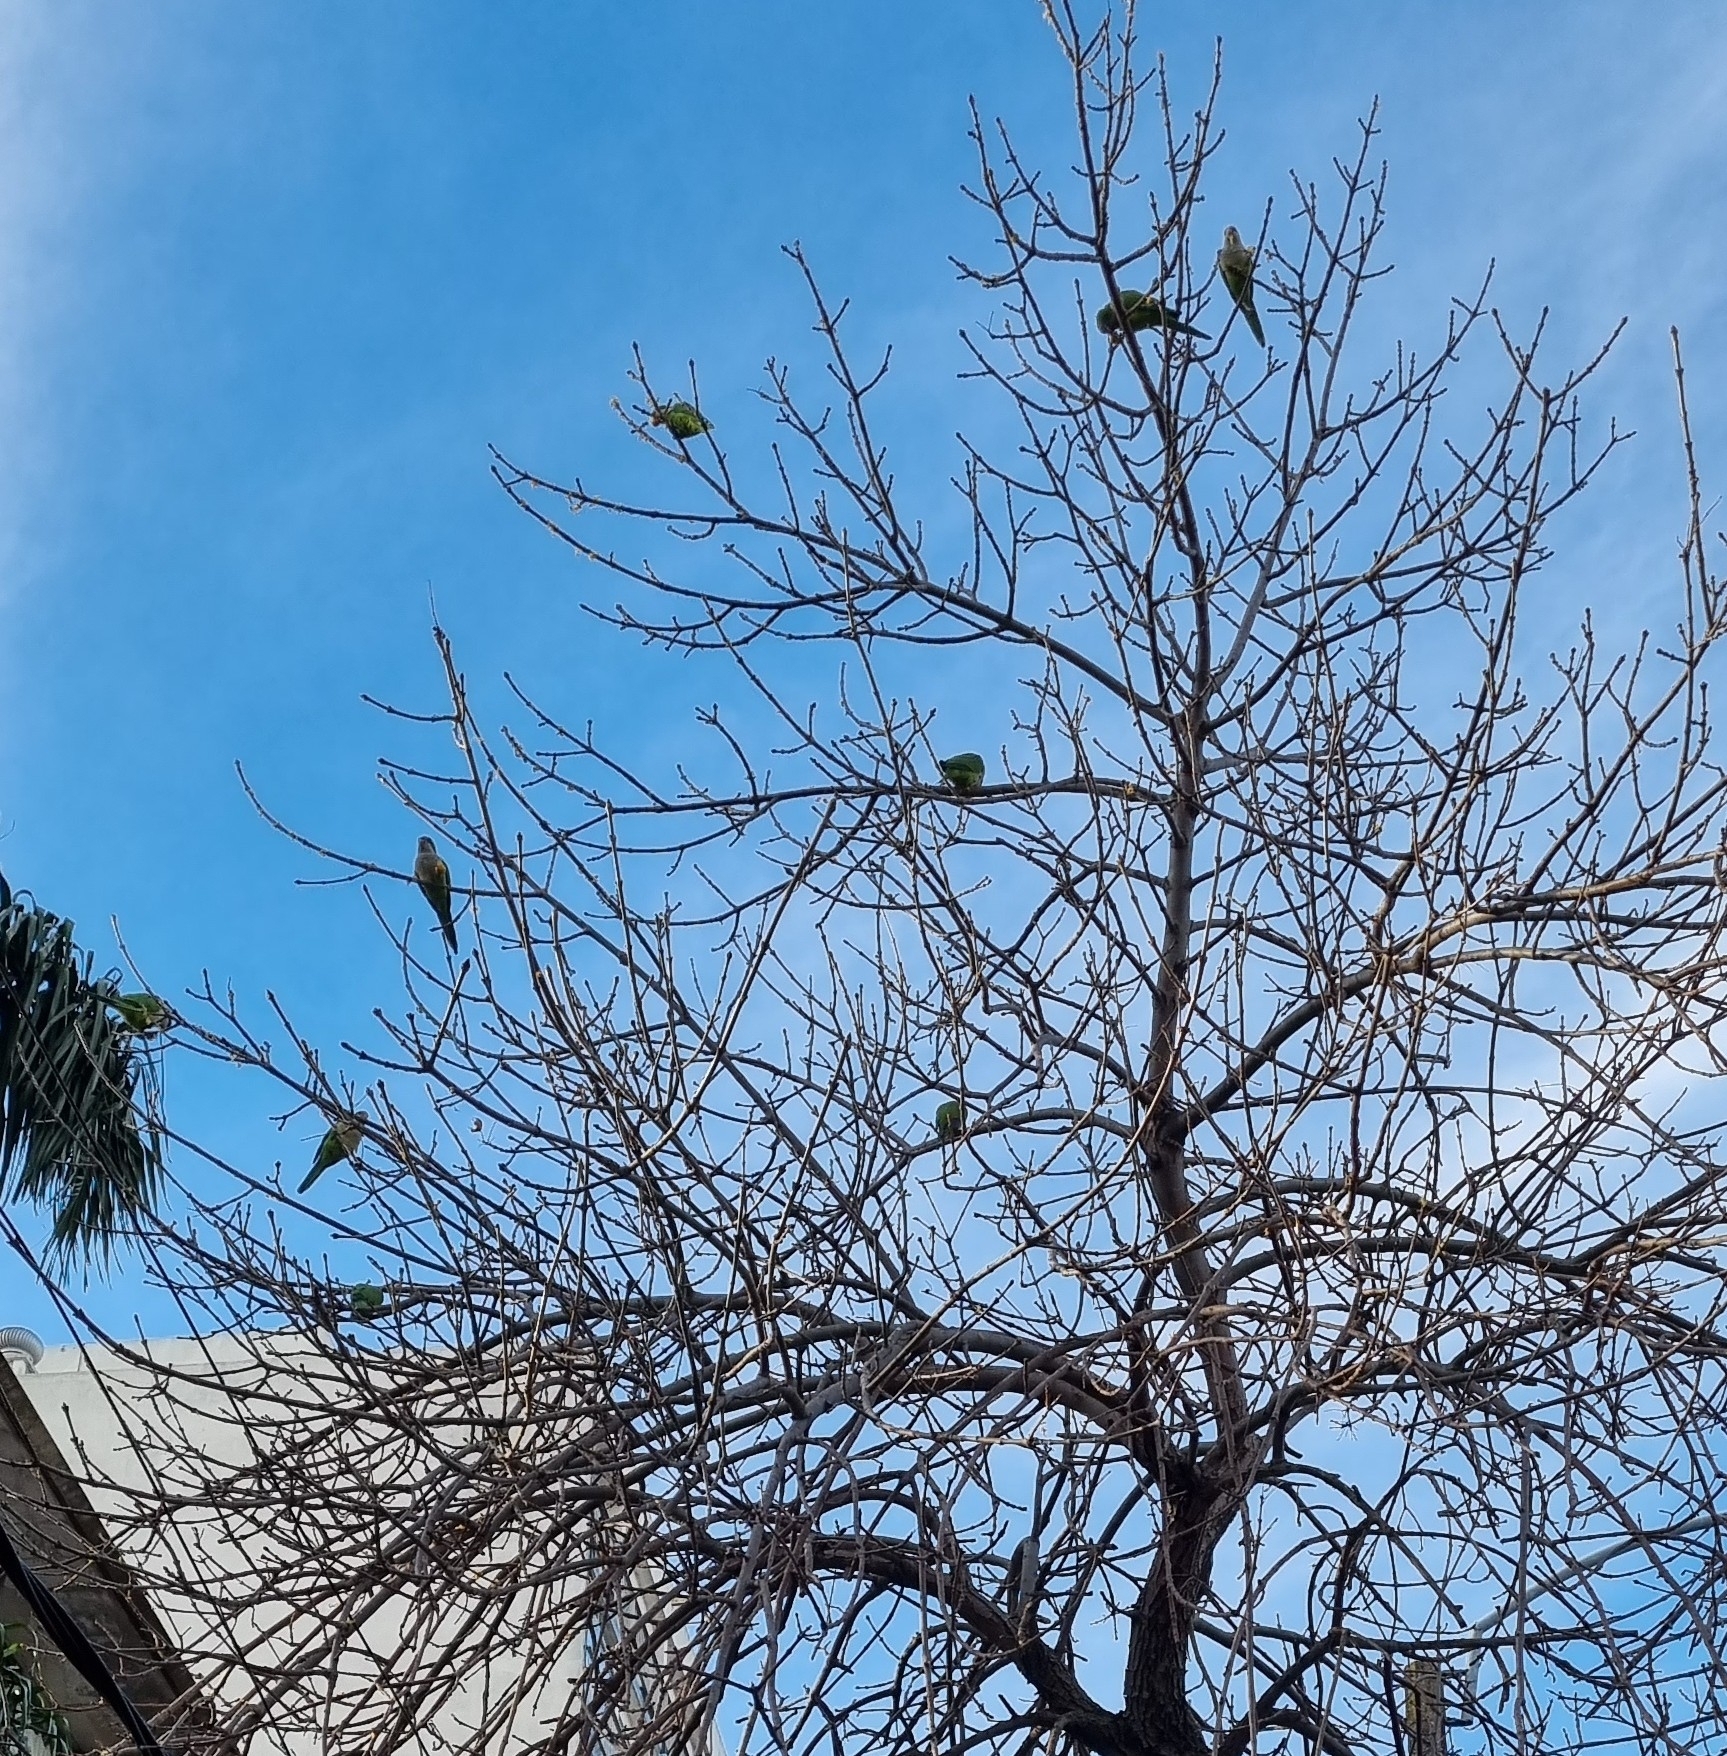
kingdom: Animalia
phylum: Chordata
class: Aves
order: Psittaciformes
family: Psittacidae
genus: Myiopsitta
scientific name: Myiopsitta monachus
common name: Monk parakeet
